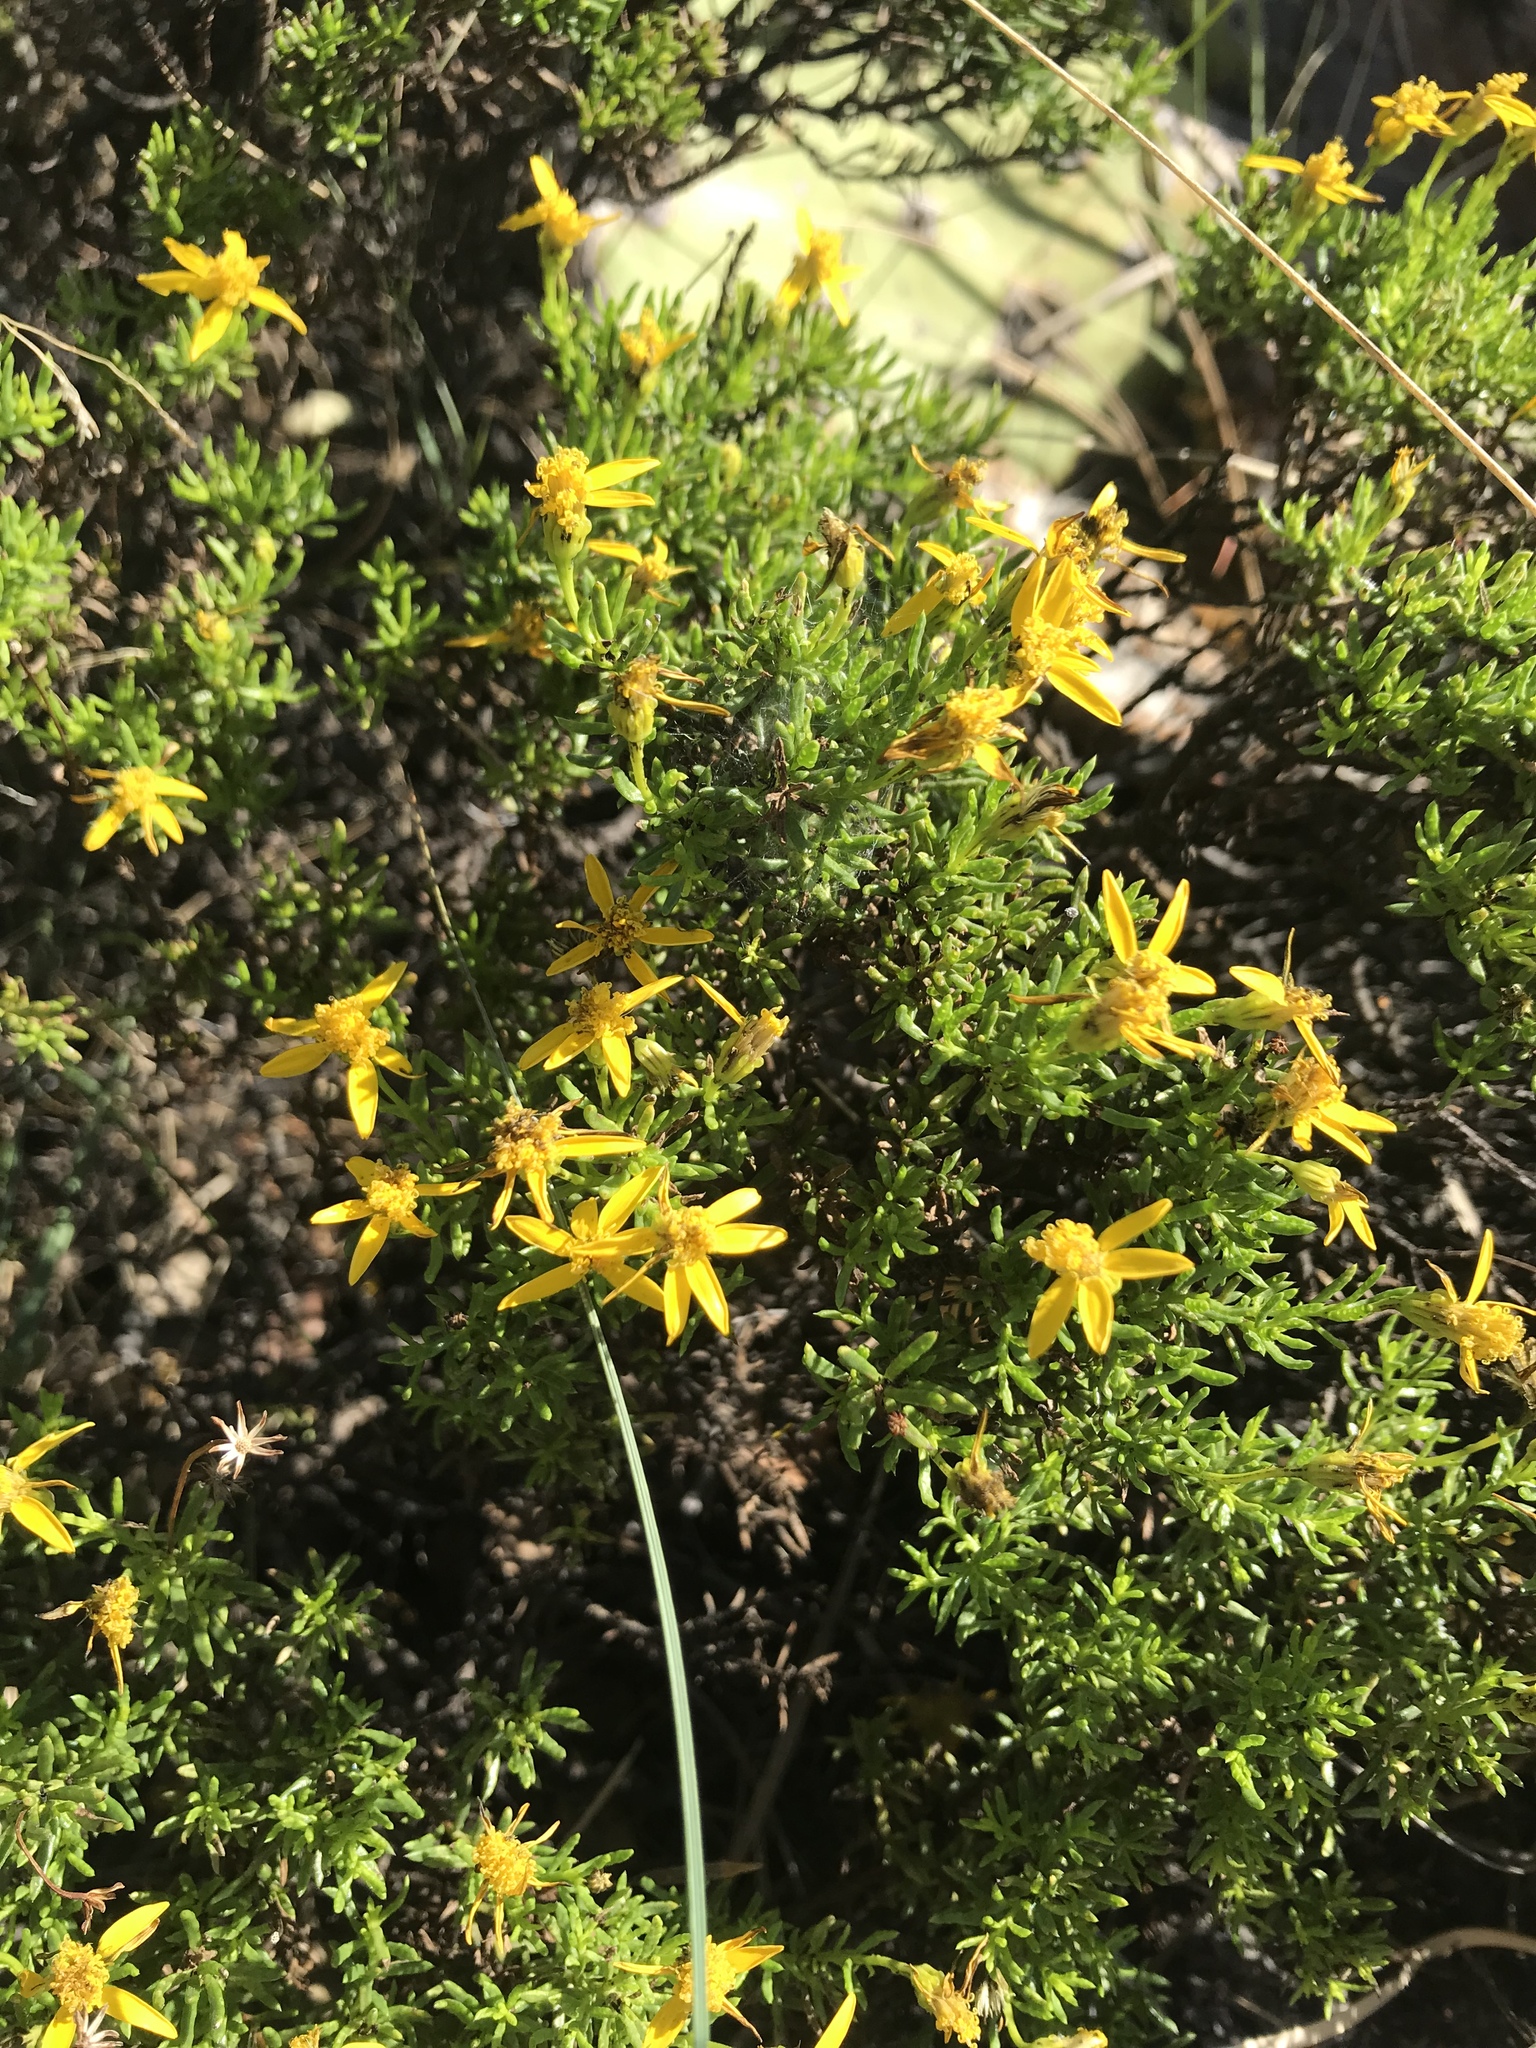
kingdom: Plantae
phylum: Tracheophyta
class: Magnoliopsida
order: Asterales
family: Asteraceae
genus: Chrysactinia
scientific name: Chrysactinia mexicana
